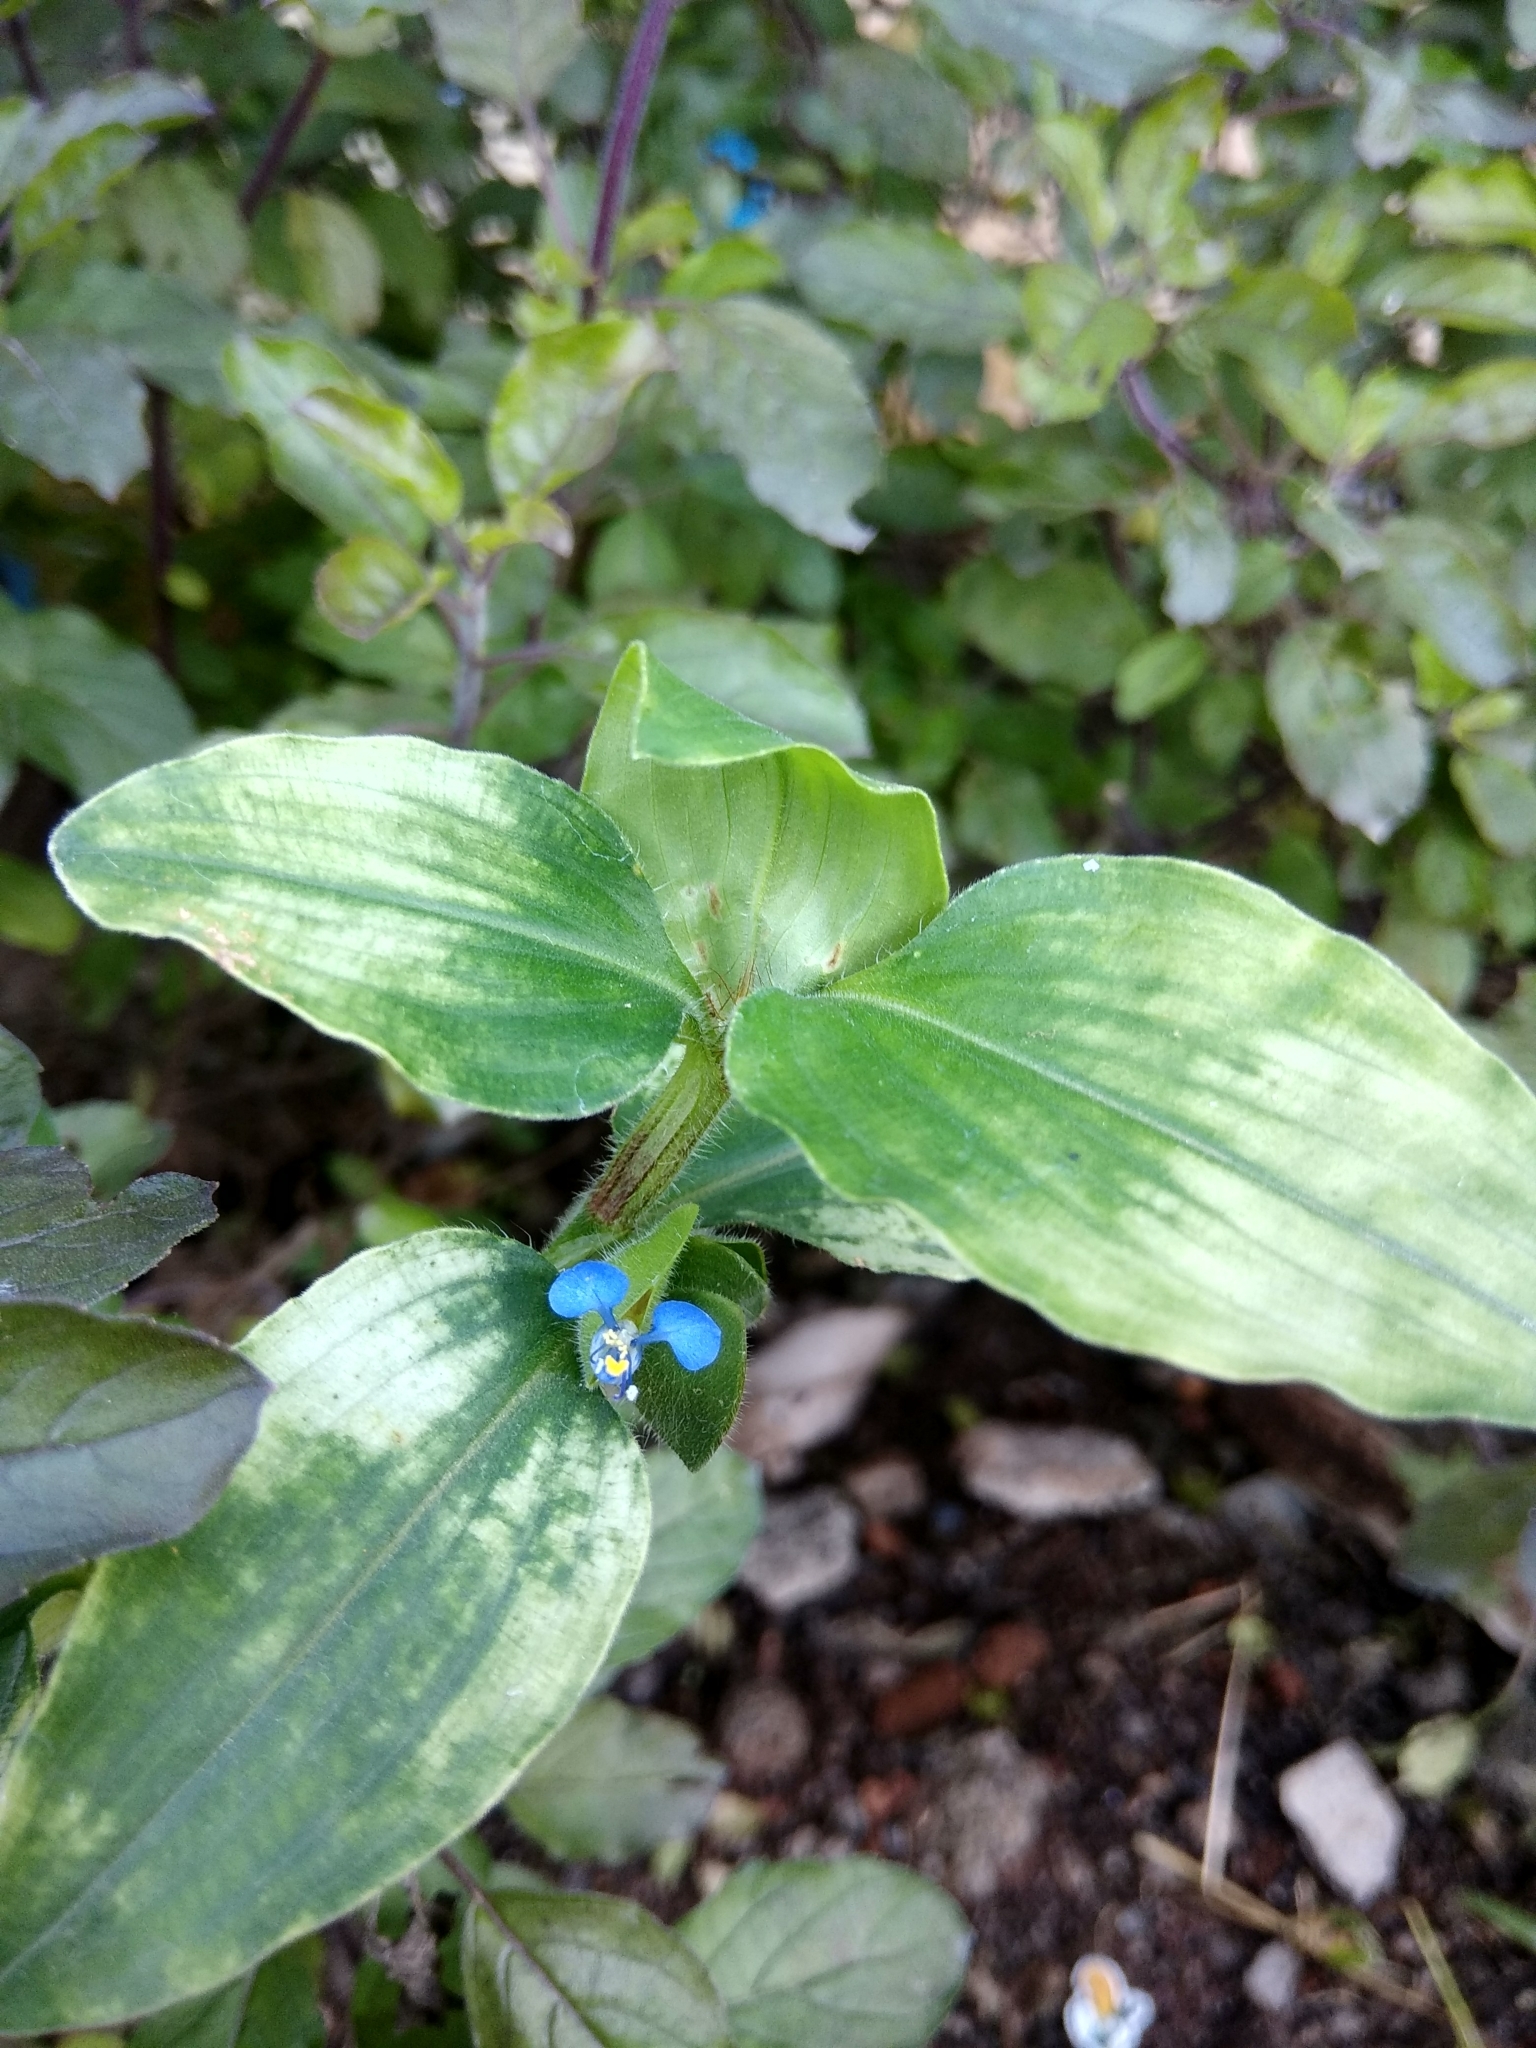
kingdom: Plantae
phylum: Tracheophyta
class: Liliopsida
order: Commelinales
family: Commelinaceae
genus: Commelina
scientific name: Commelina benghalensis
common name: Jio
